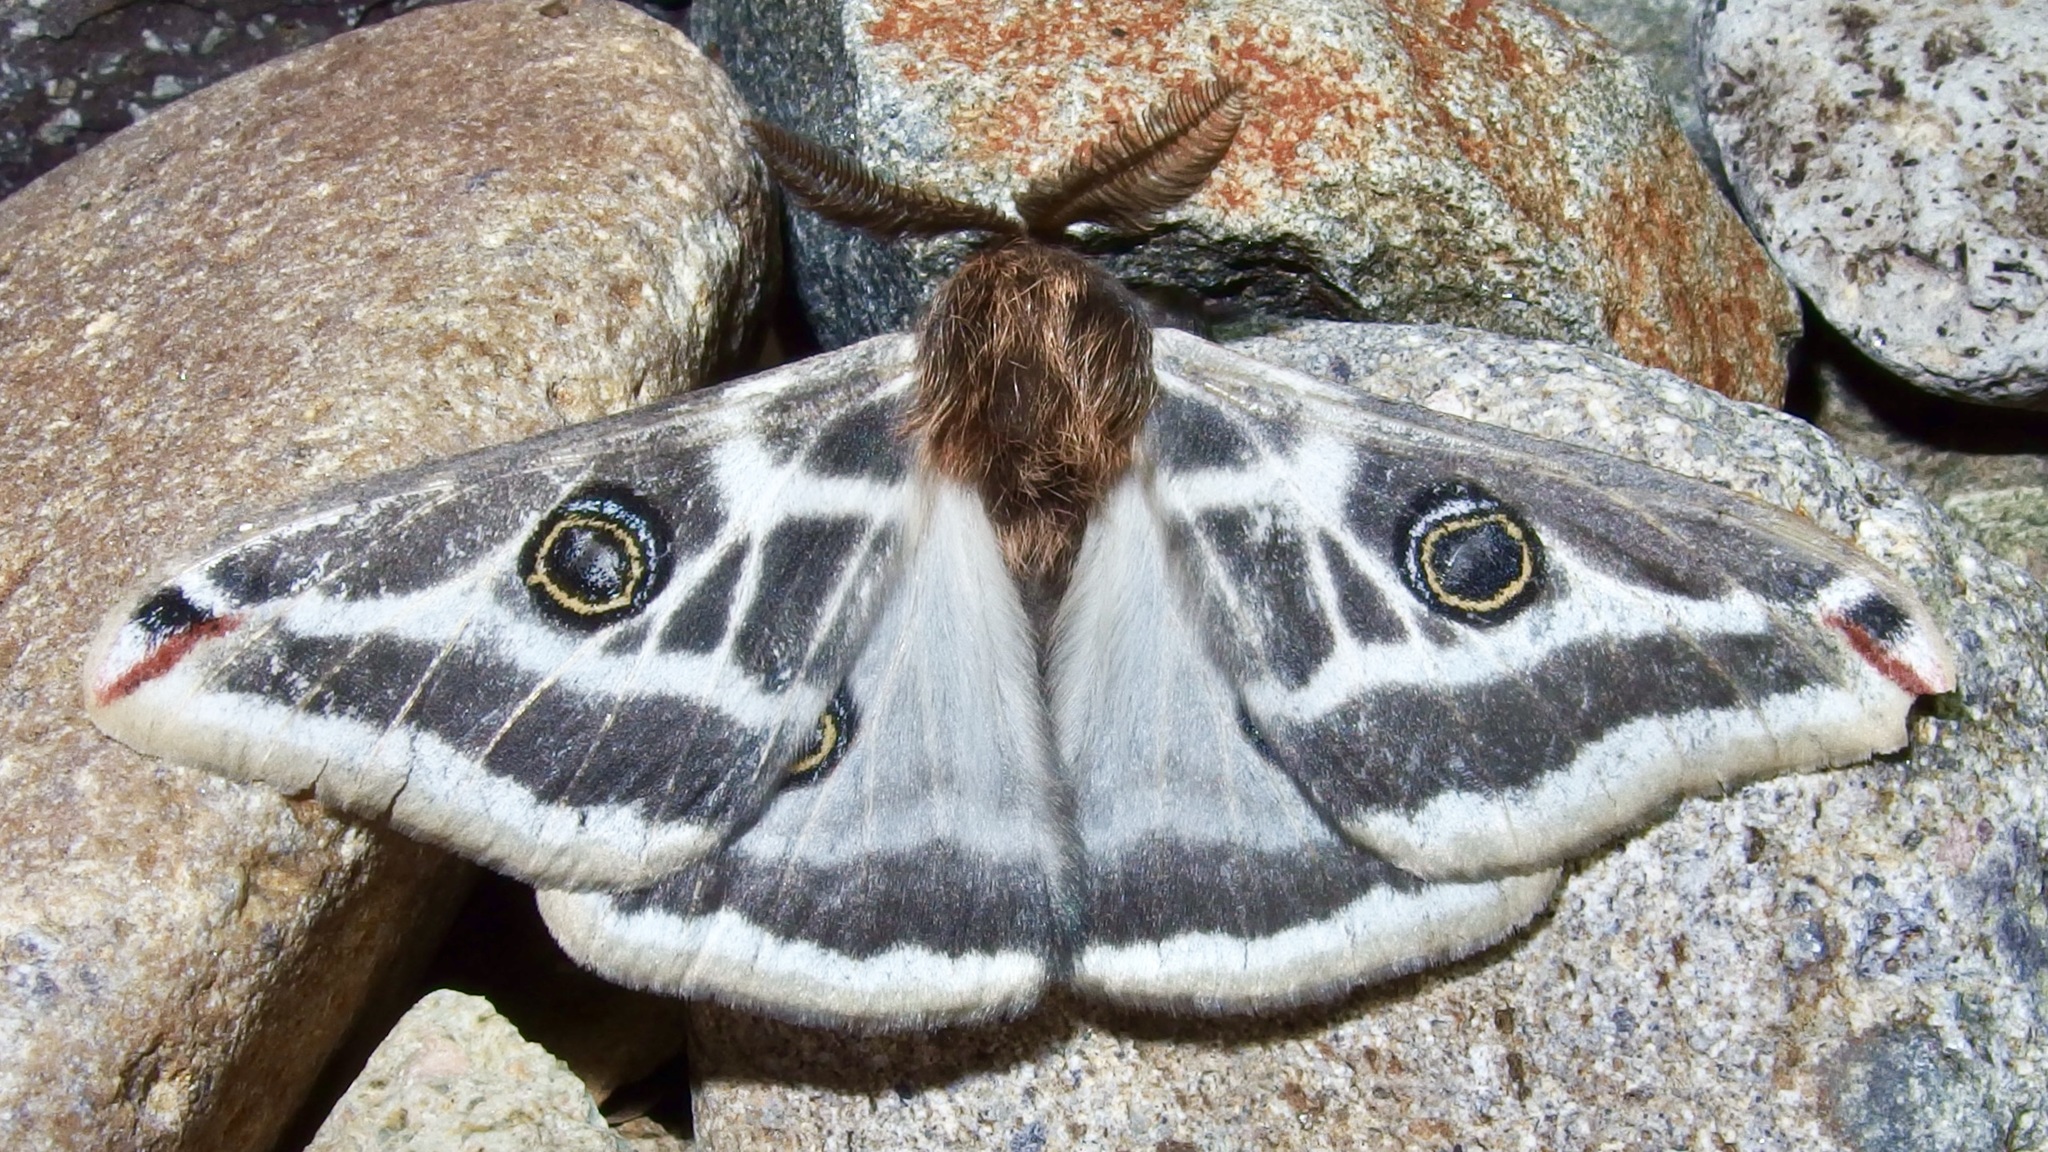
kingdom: Animalia
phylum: Arthropoda
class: Insecta
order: Lepidoptera
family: Saturniidae
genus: Saturnia
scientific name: Saturnia anona
